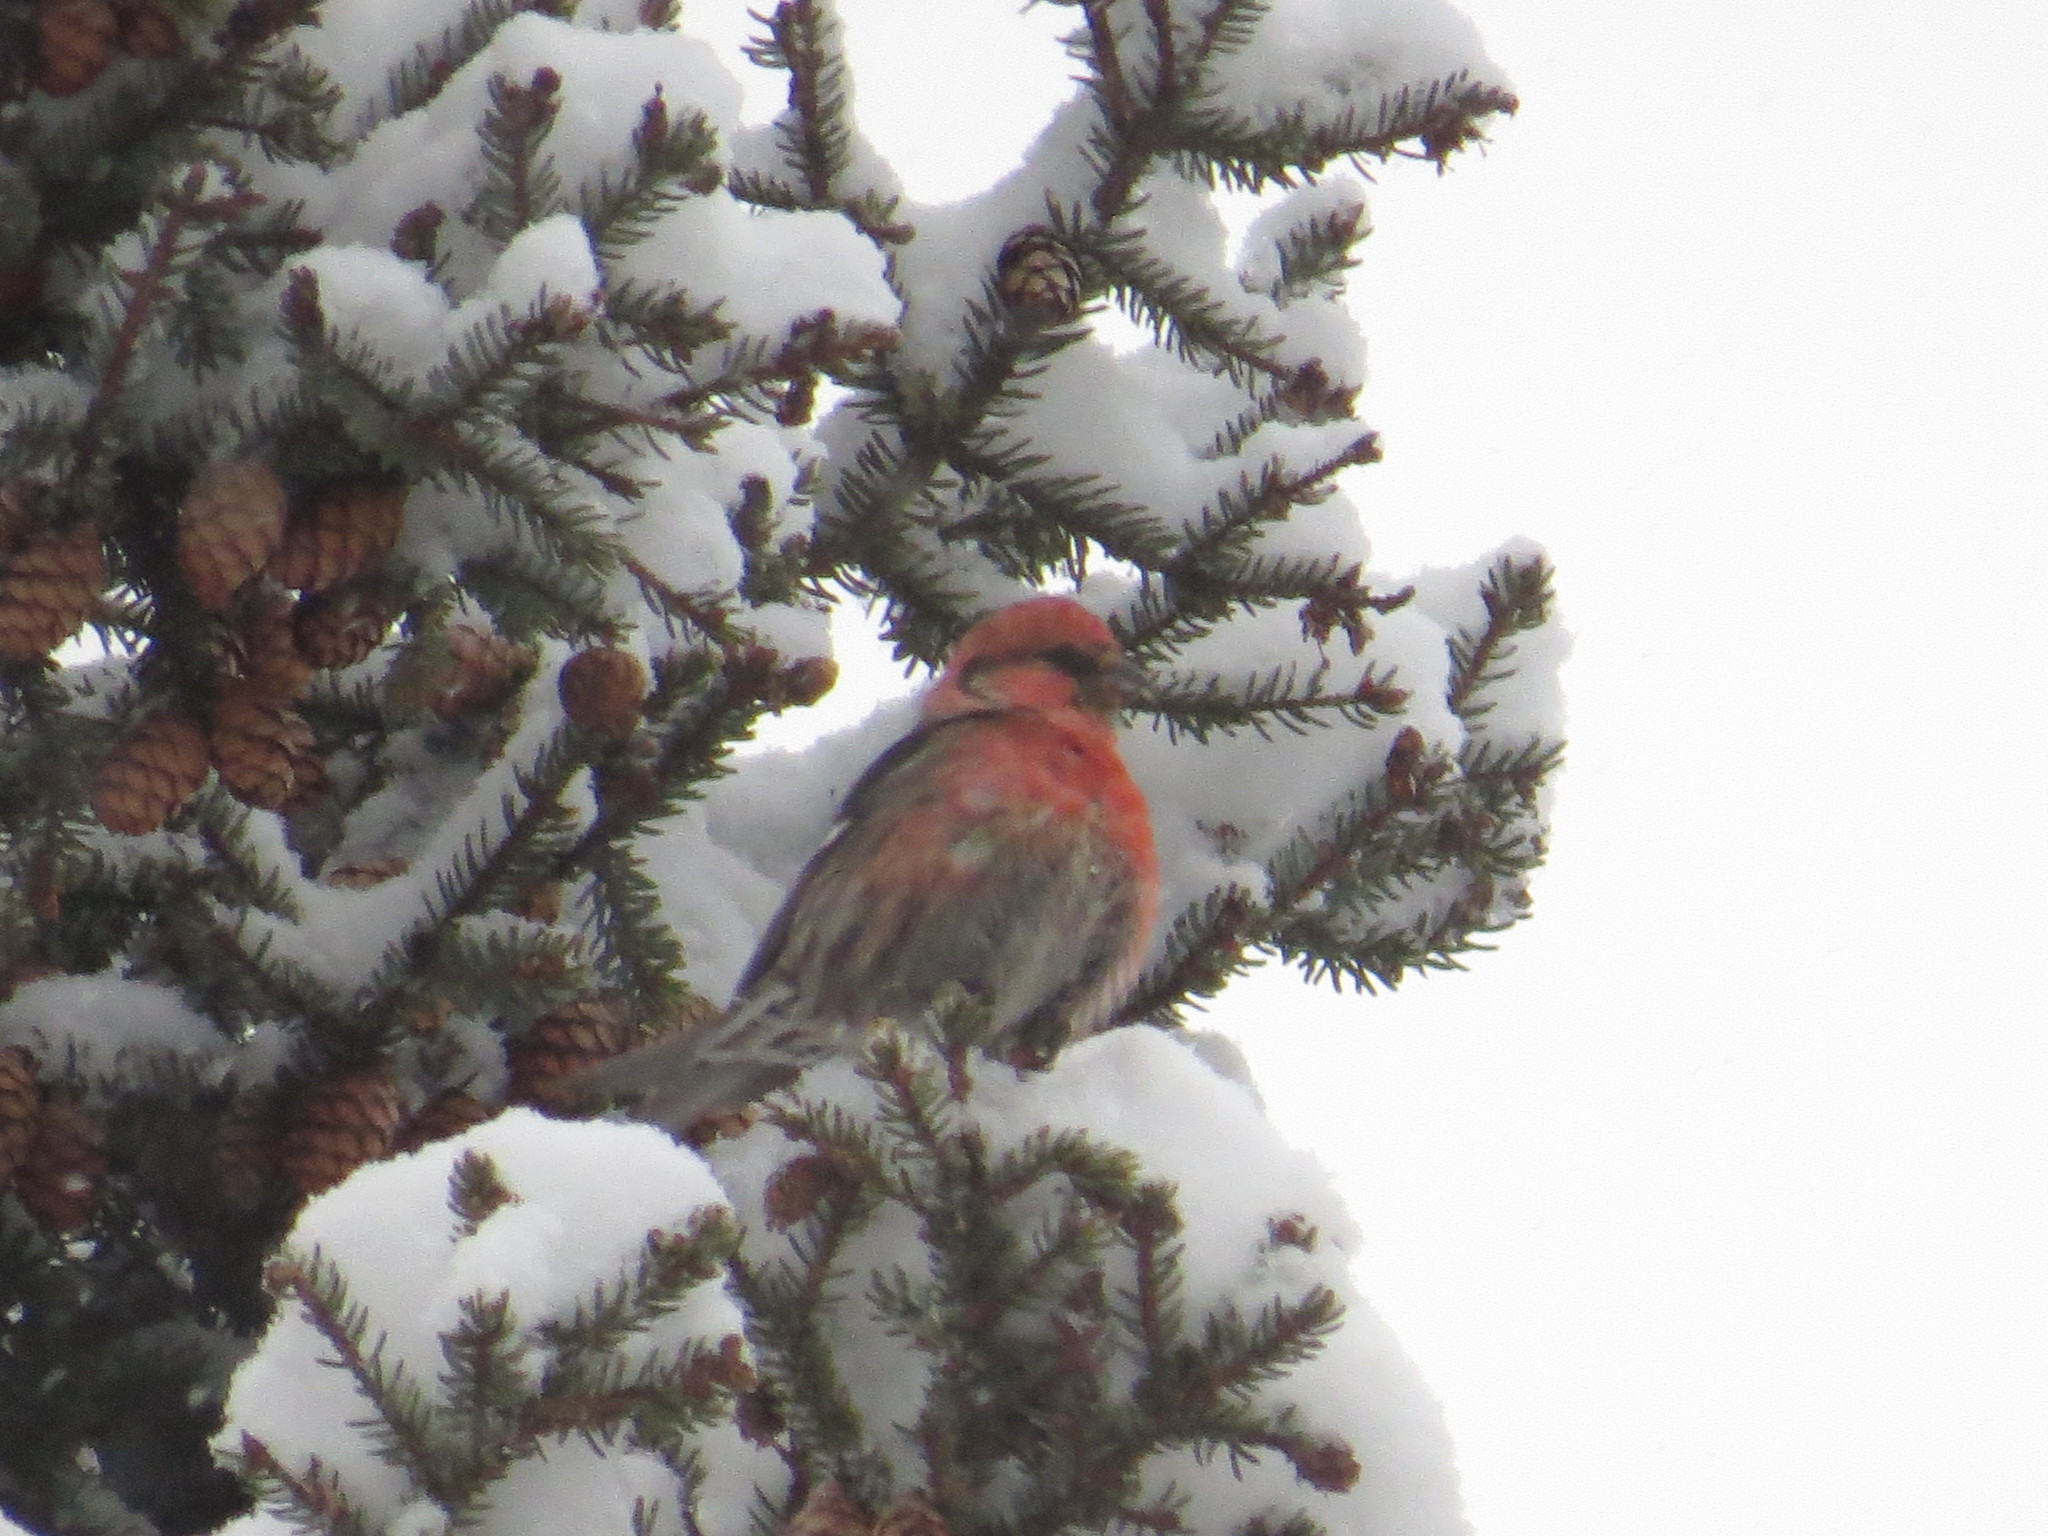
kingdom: Animalia
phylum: Chordata
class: Aves
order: Passeriformes
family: Fringillidae
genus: Loxia
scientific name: Loxia leucoptera
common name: Two-barred crossbill
